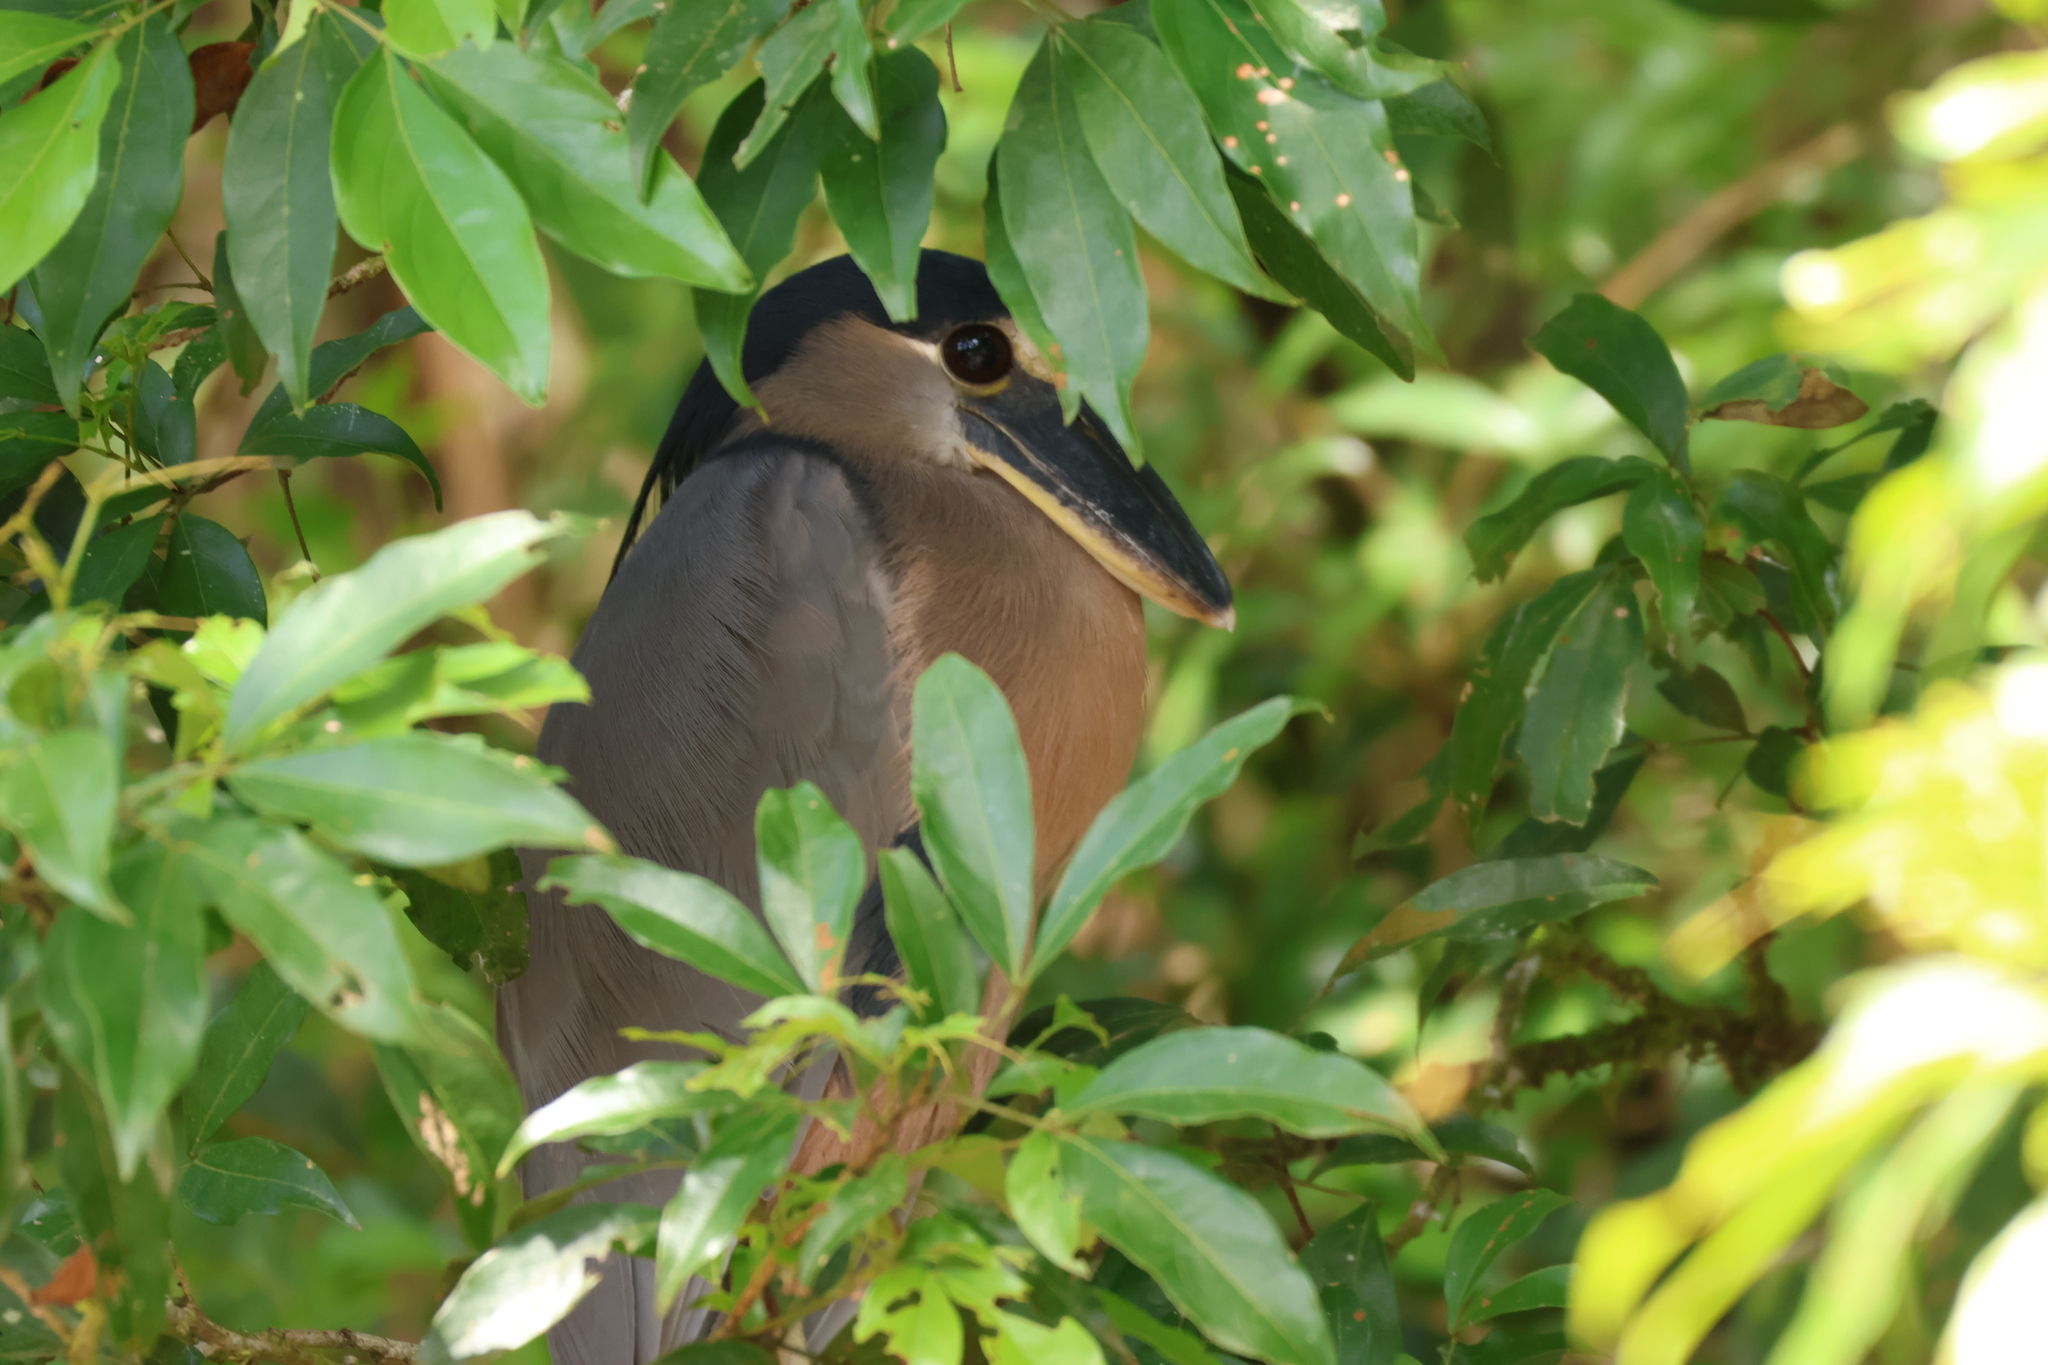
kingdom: Animalia
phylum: Chordata
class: Aves
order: Pelecaniformes
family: Ardeidae
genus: Cochlearius
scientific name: Cochlearius cochlearius
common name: Boat-billed heron
